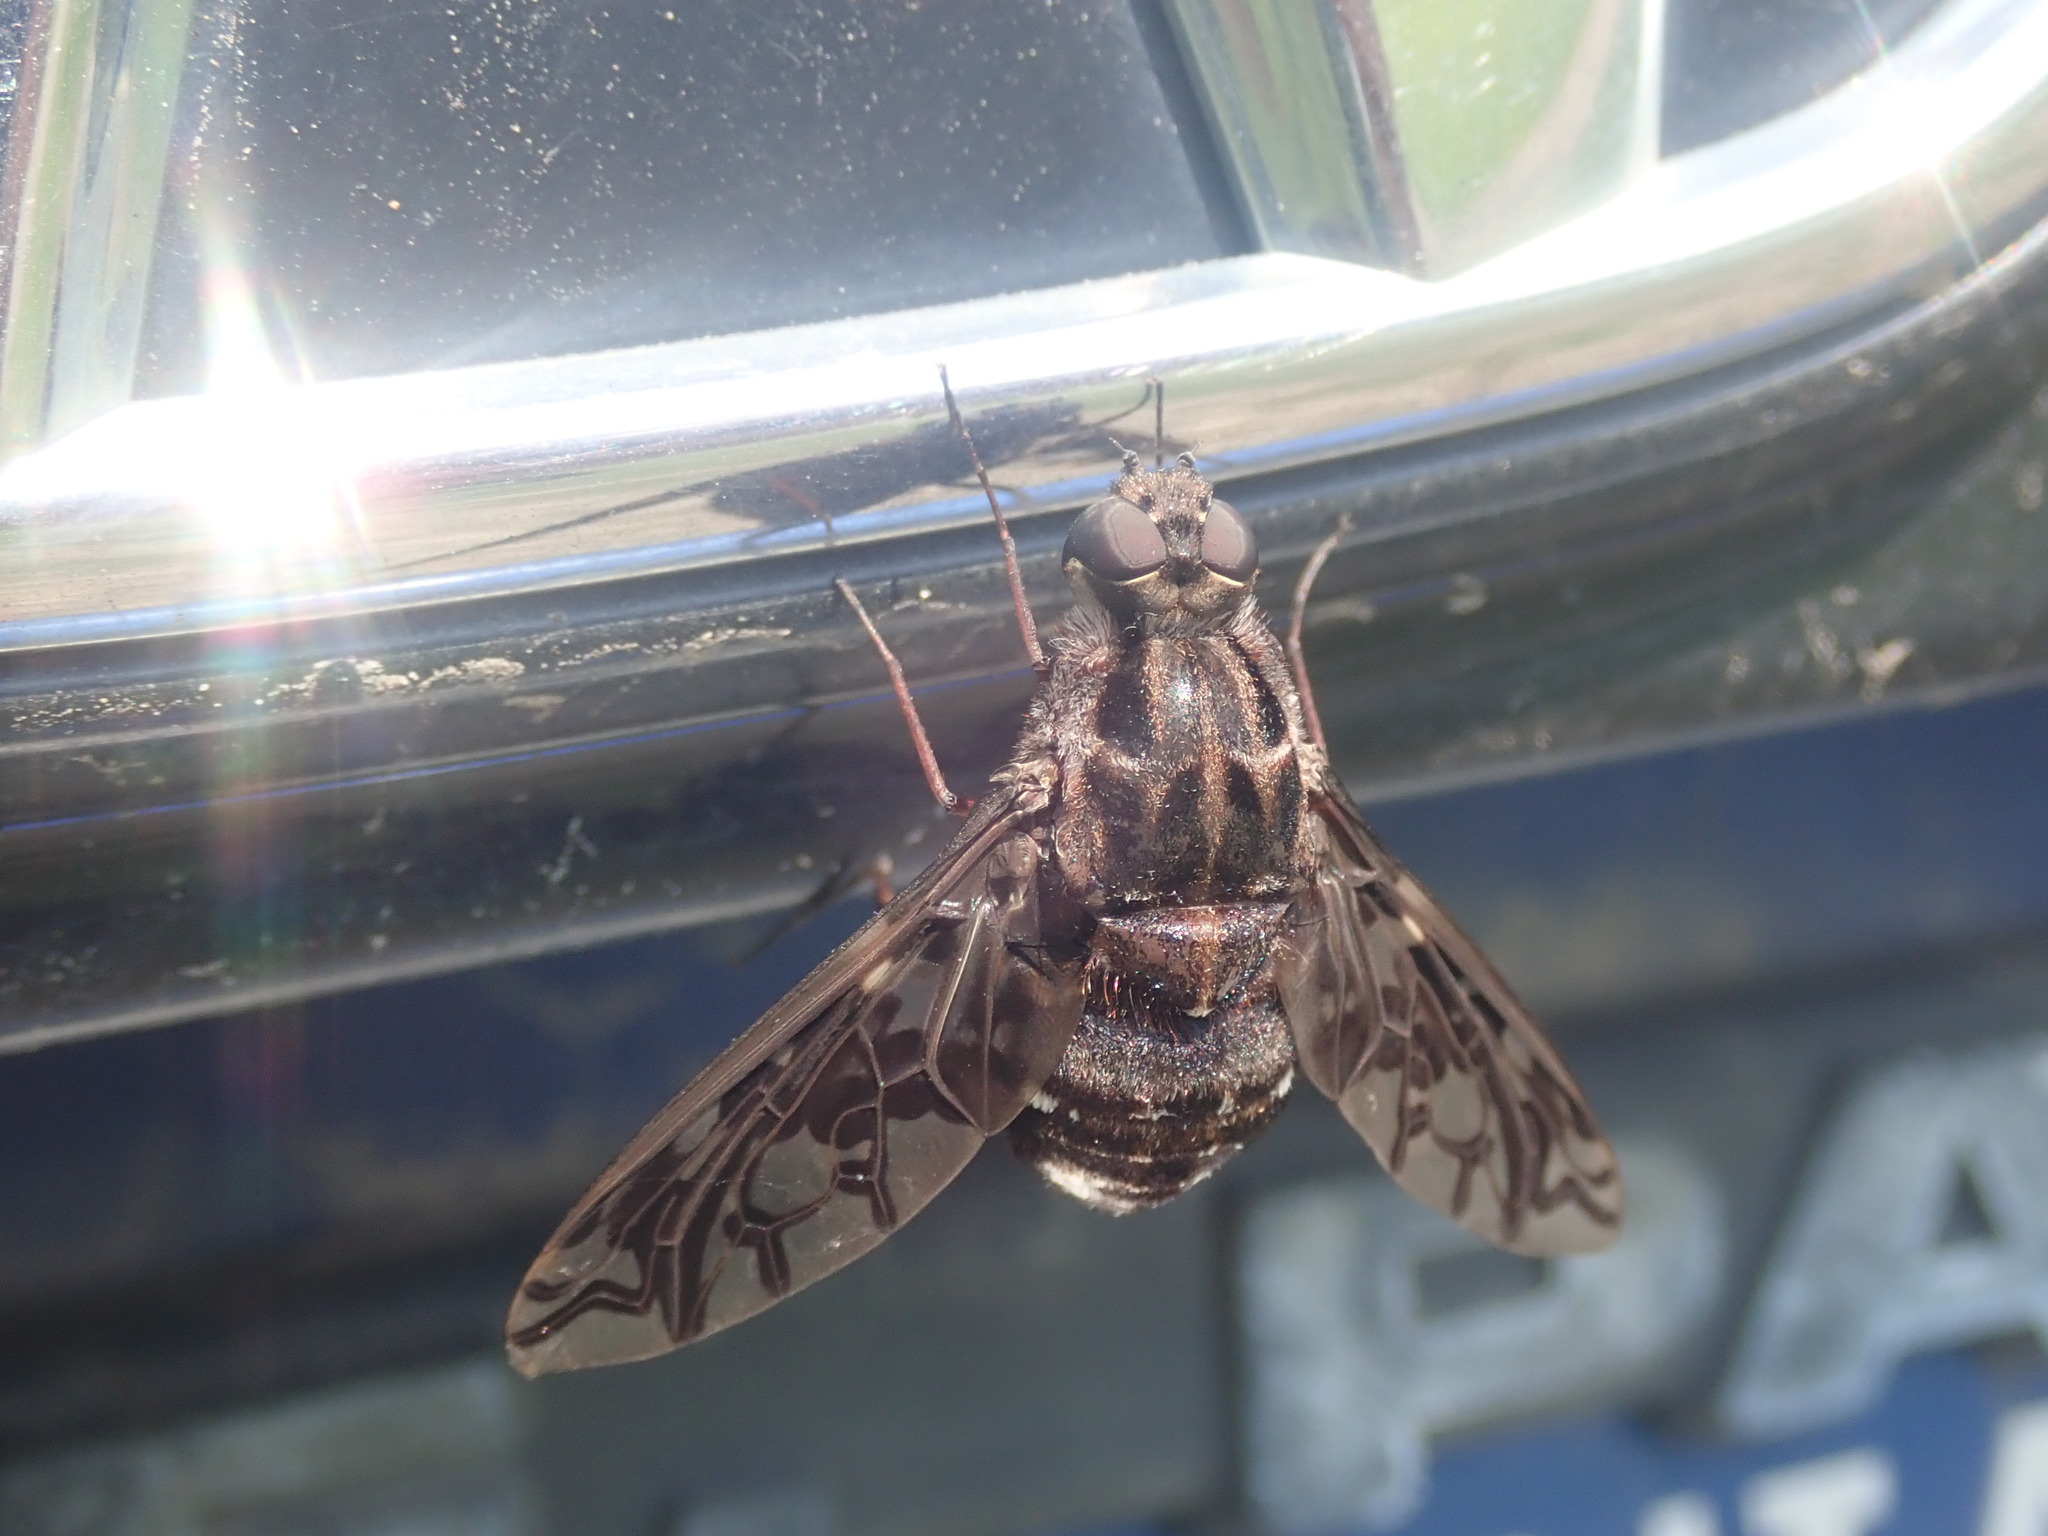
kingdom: Animalia
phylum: Arthropoda
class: Insecta
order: Diptera
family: Bombyliidae
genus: Xenox
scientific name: Xenox tigrinus
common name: Tiger bee fly
